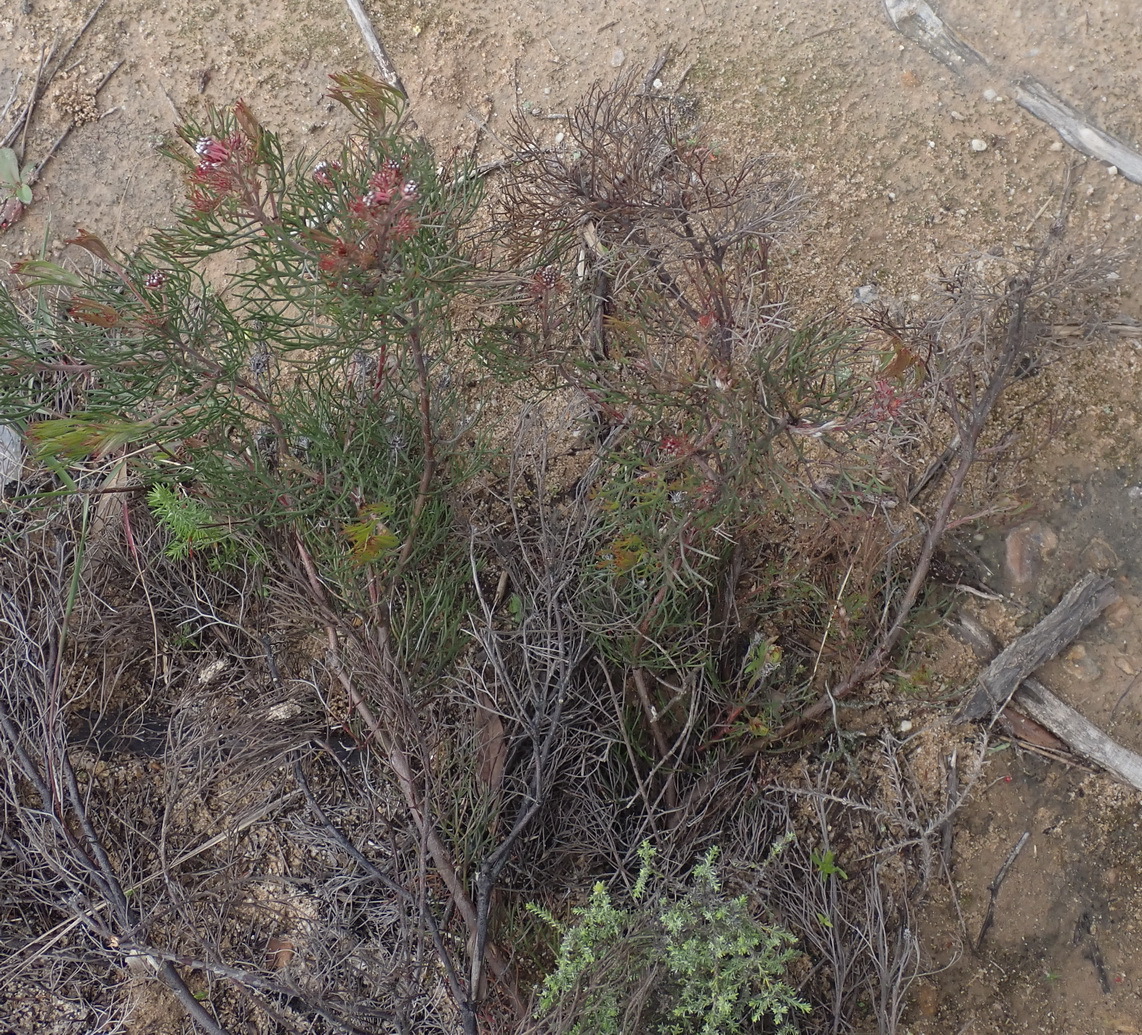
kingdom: Plantae
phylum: Tracheophyta
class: Magnoliopsida
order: Proteales
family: Proteaceae
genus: Serruria
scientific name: Serruria fasciflora
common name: Common pin spiderhead
